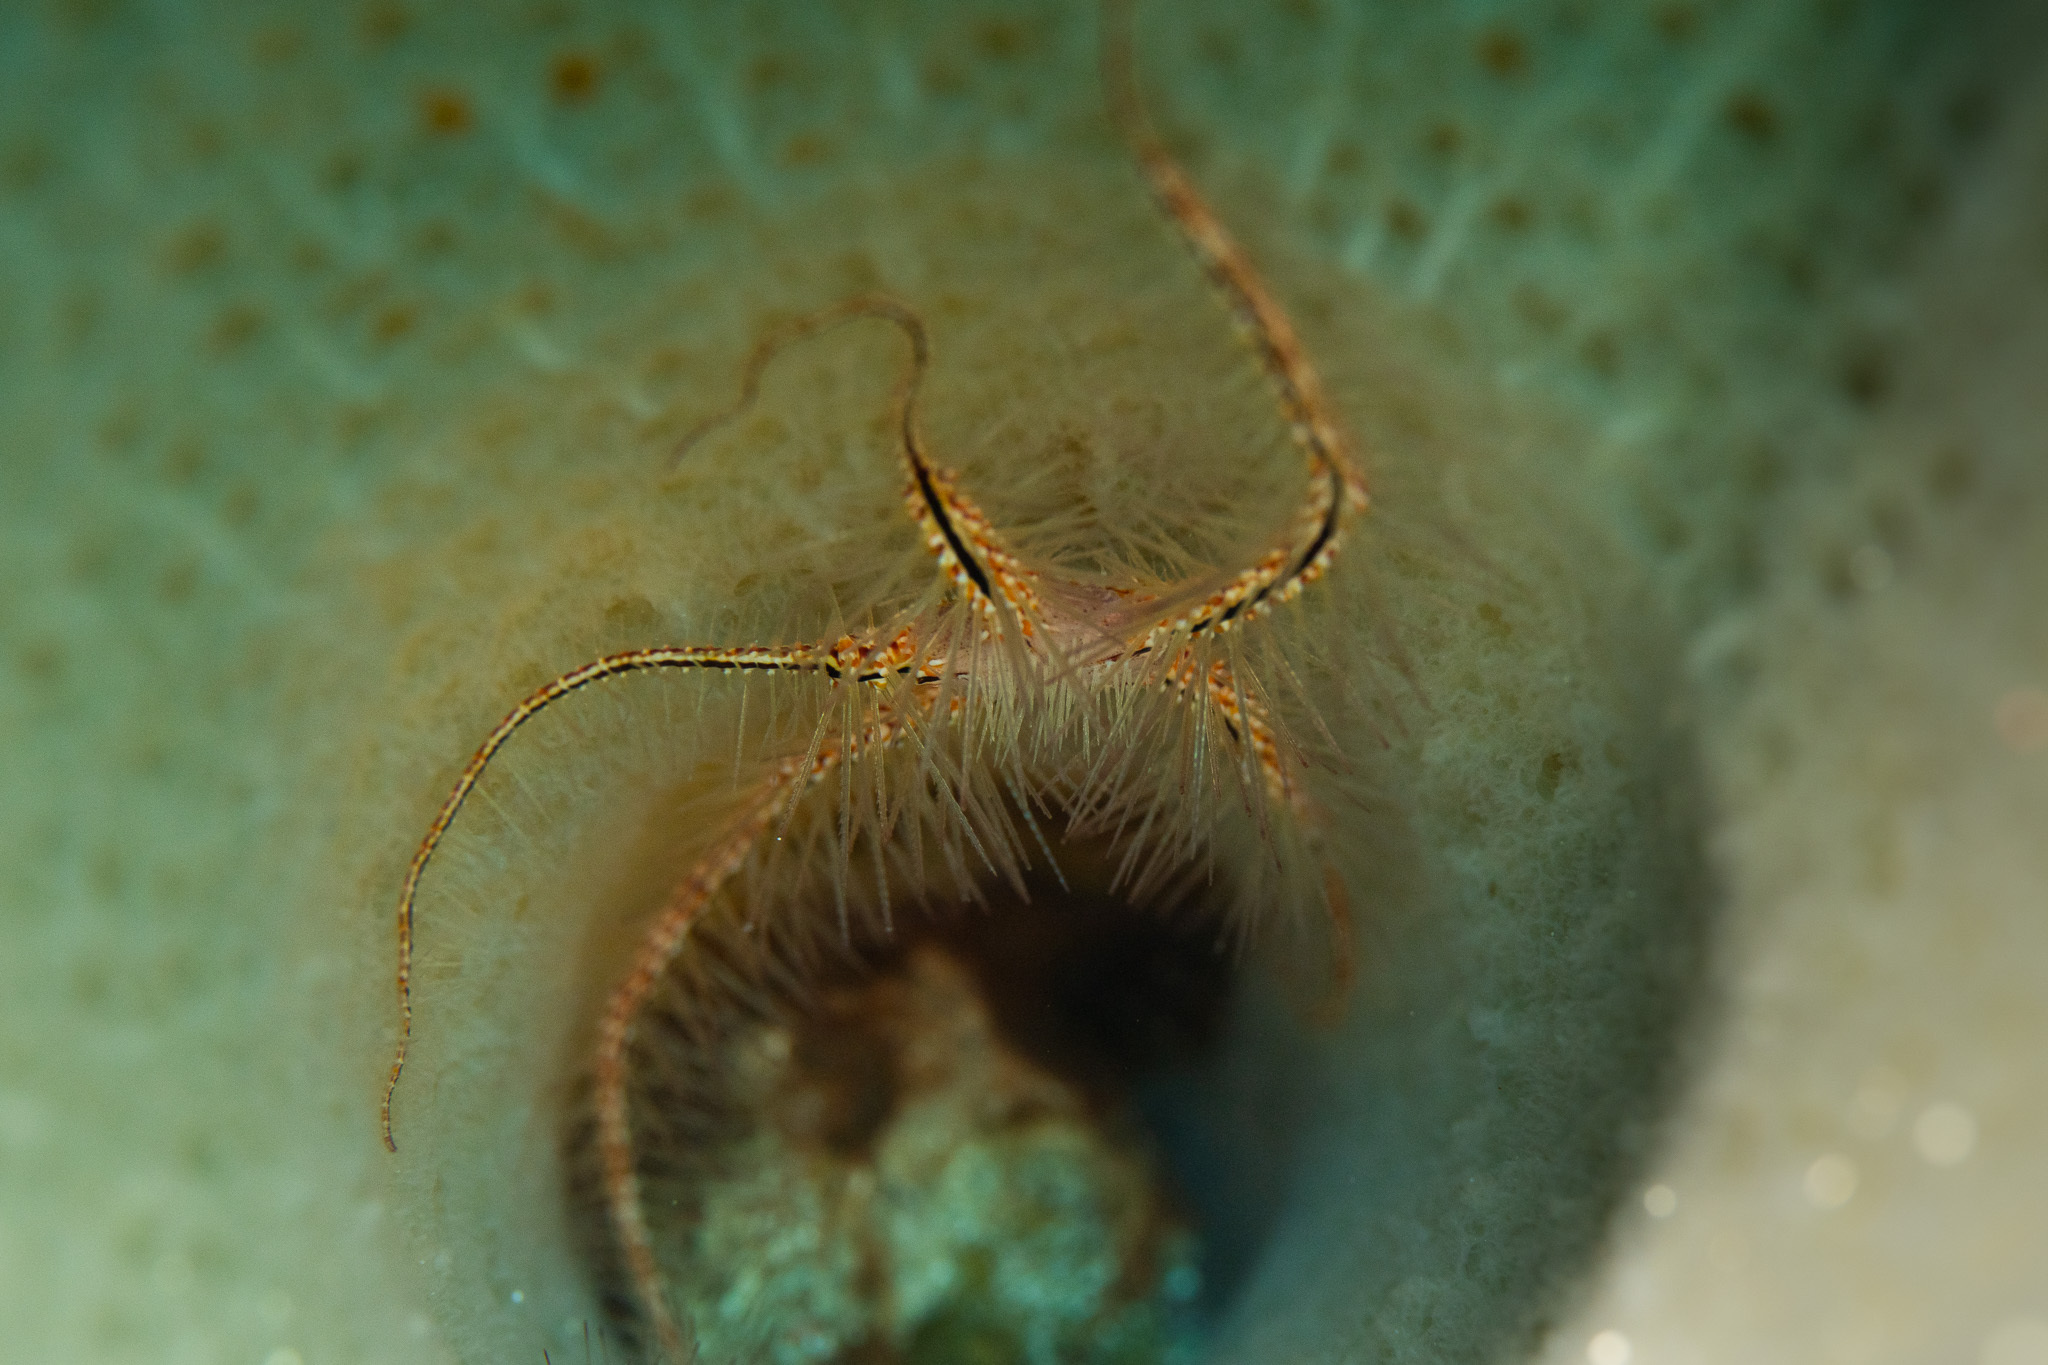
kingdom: Animalia
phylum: Echinodermata
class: Ophiuroidea
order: Amphilepidida
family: Ophiotrichidae
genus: Ophiothrix
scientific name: Ophiothrix suensonii
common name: Sponge brittle star
